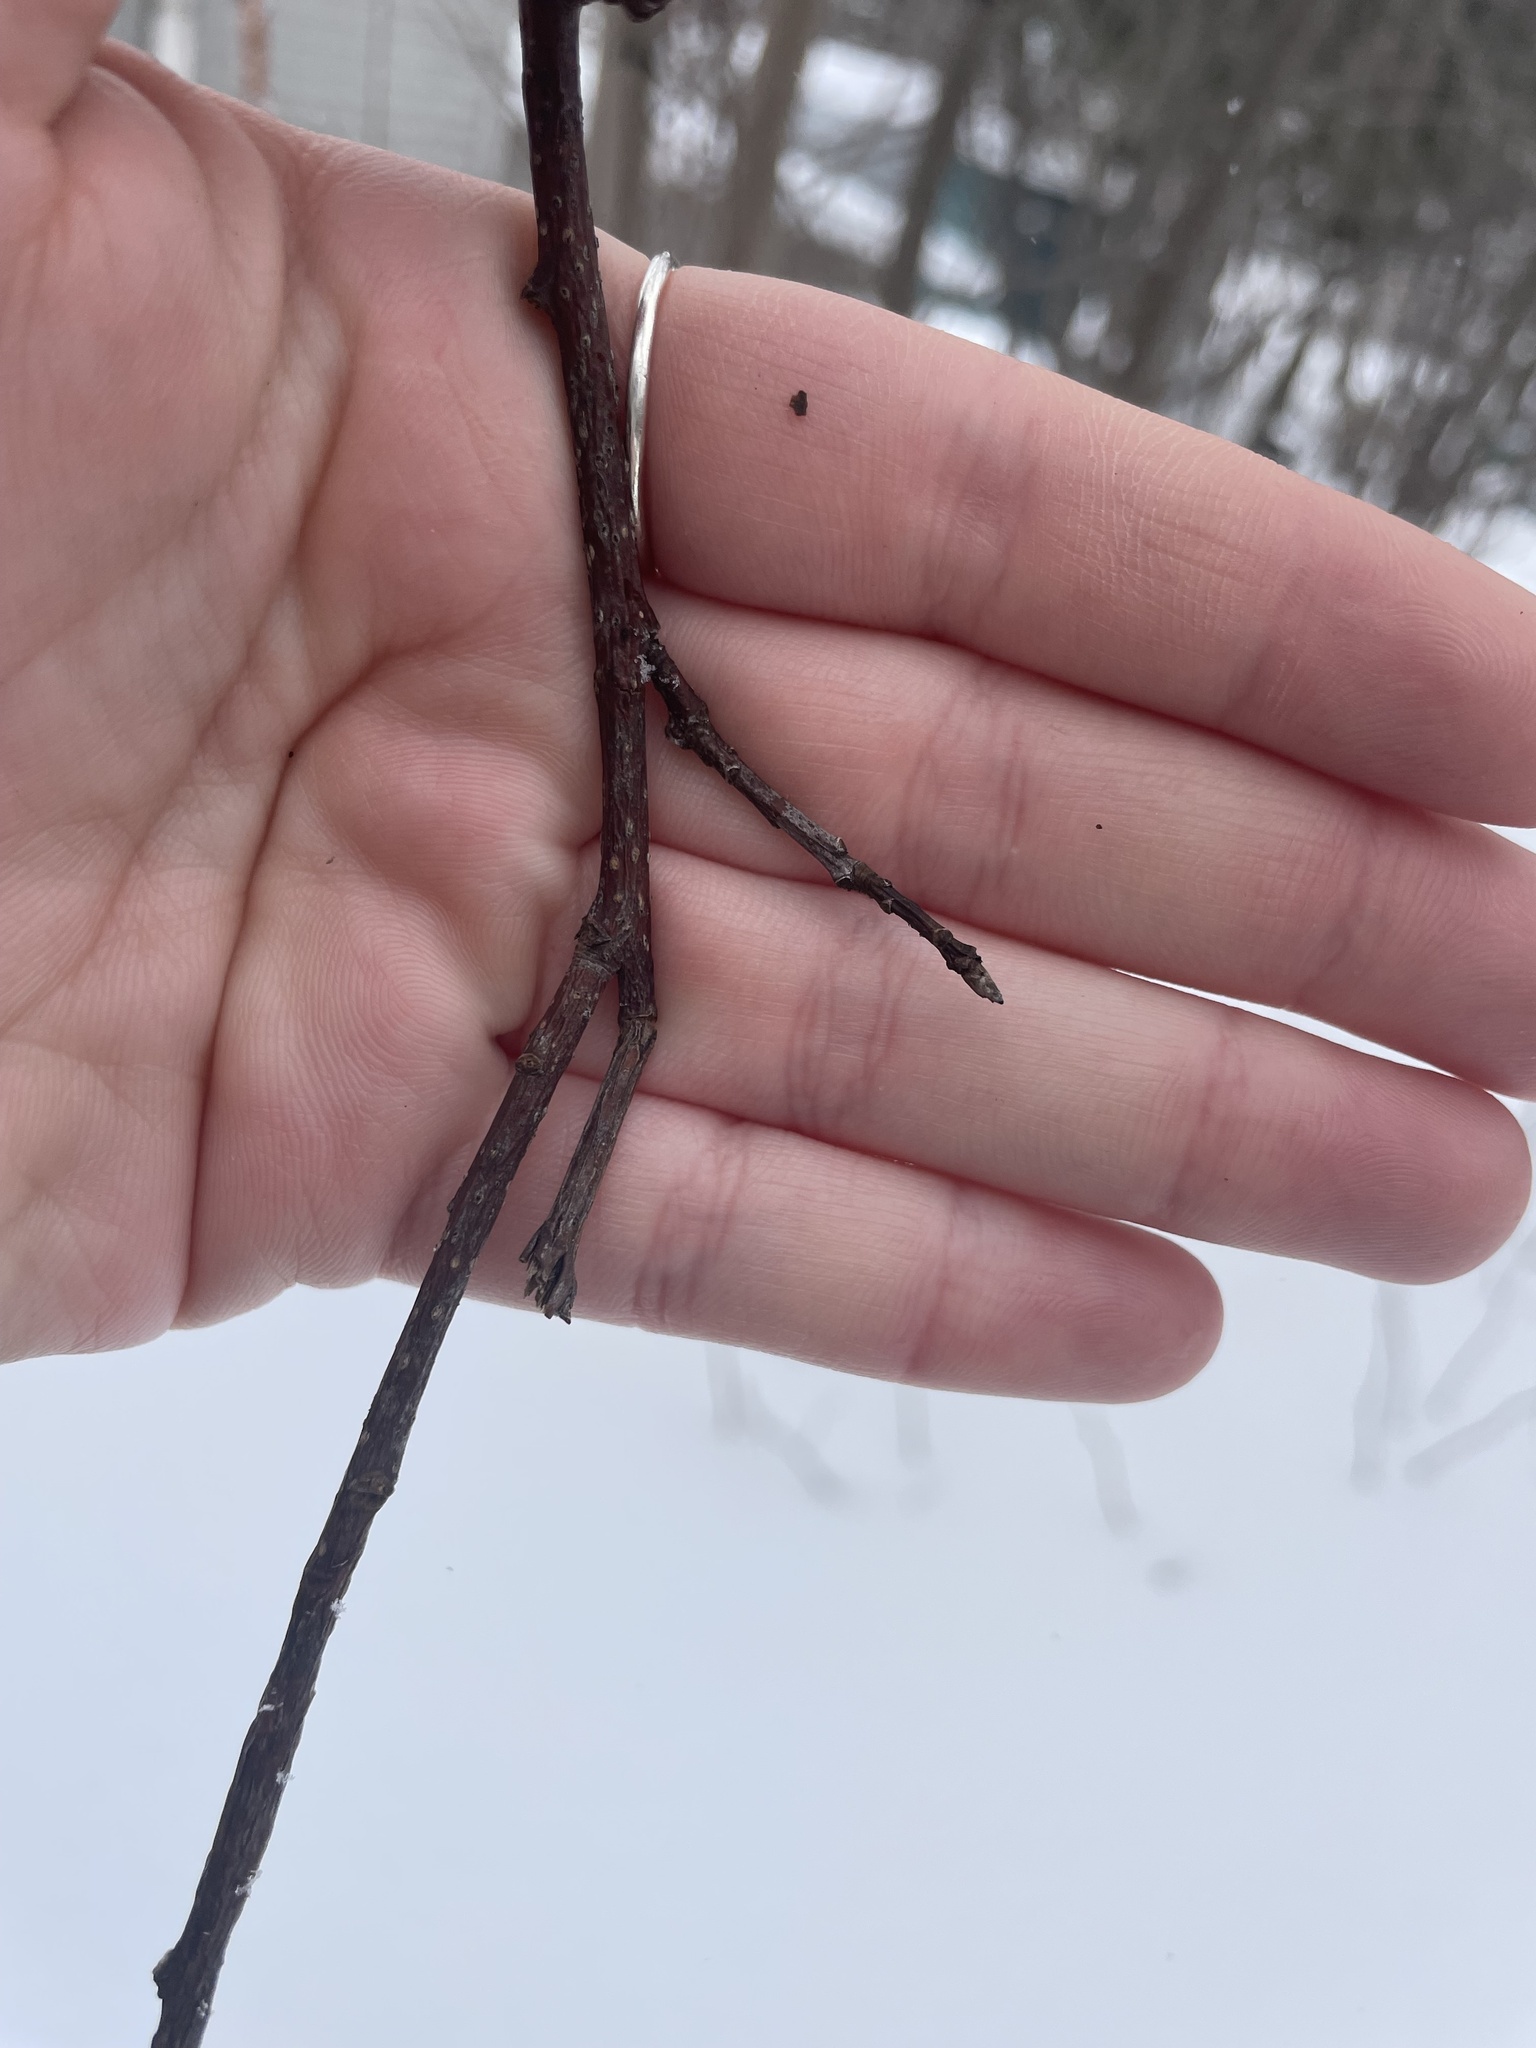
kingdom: Fungi
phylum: Ascomycota
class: Dothideomycetes
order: Venturiales
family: Venturiaceae
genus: Apiosporina
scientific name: Apiosporina morbosa
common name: Black knot
